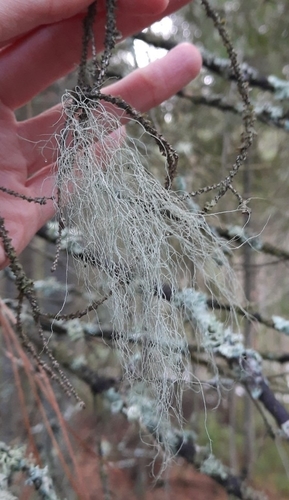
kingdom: Fungi
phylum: Ascomycota
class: Lecanoromycetes
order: Lecanorales
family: Parmeliaceae
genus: Bryoria
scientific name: Bryoria
